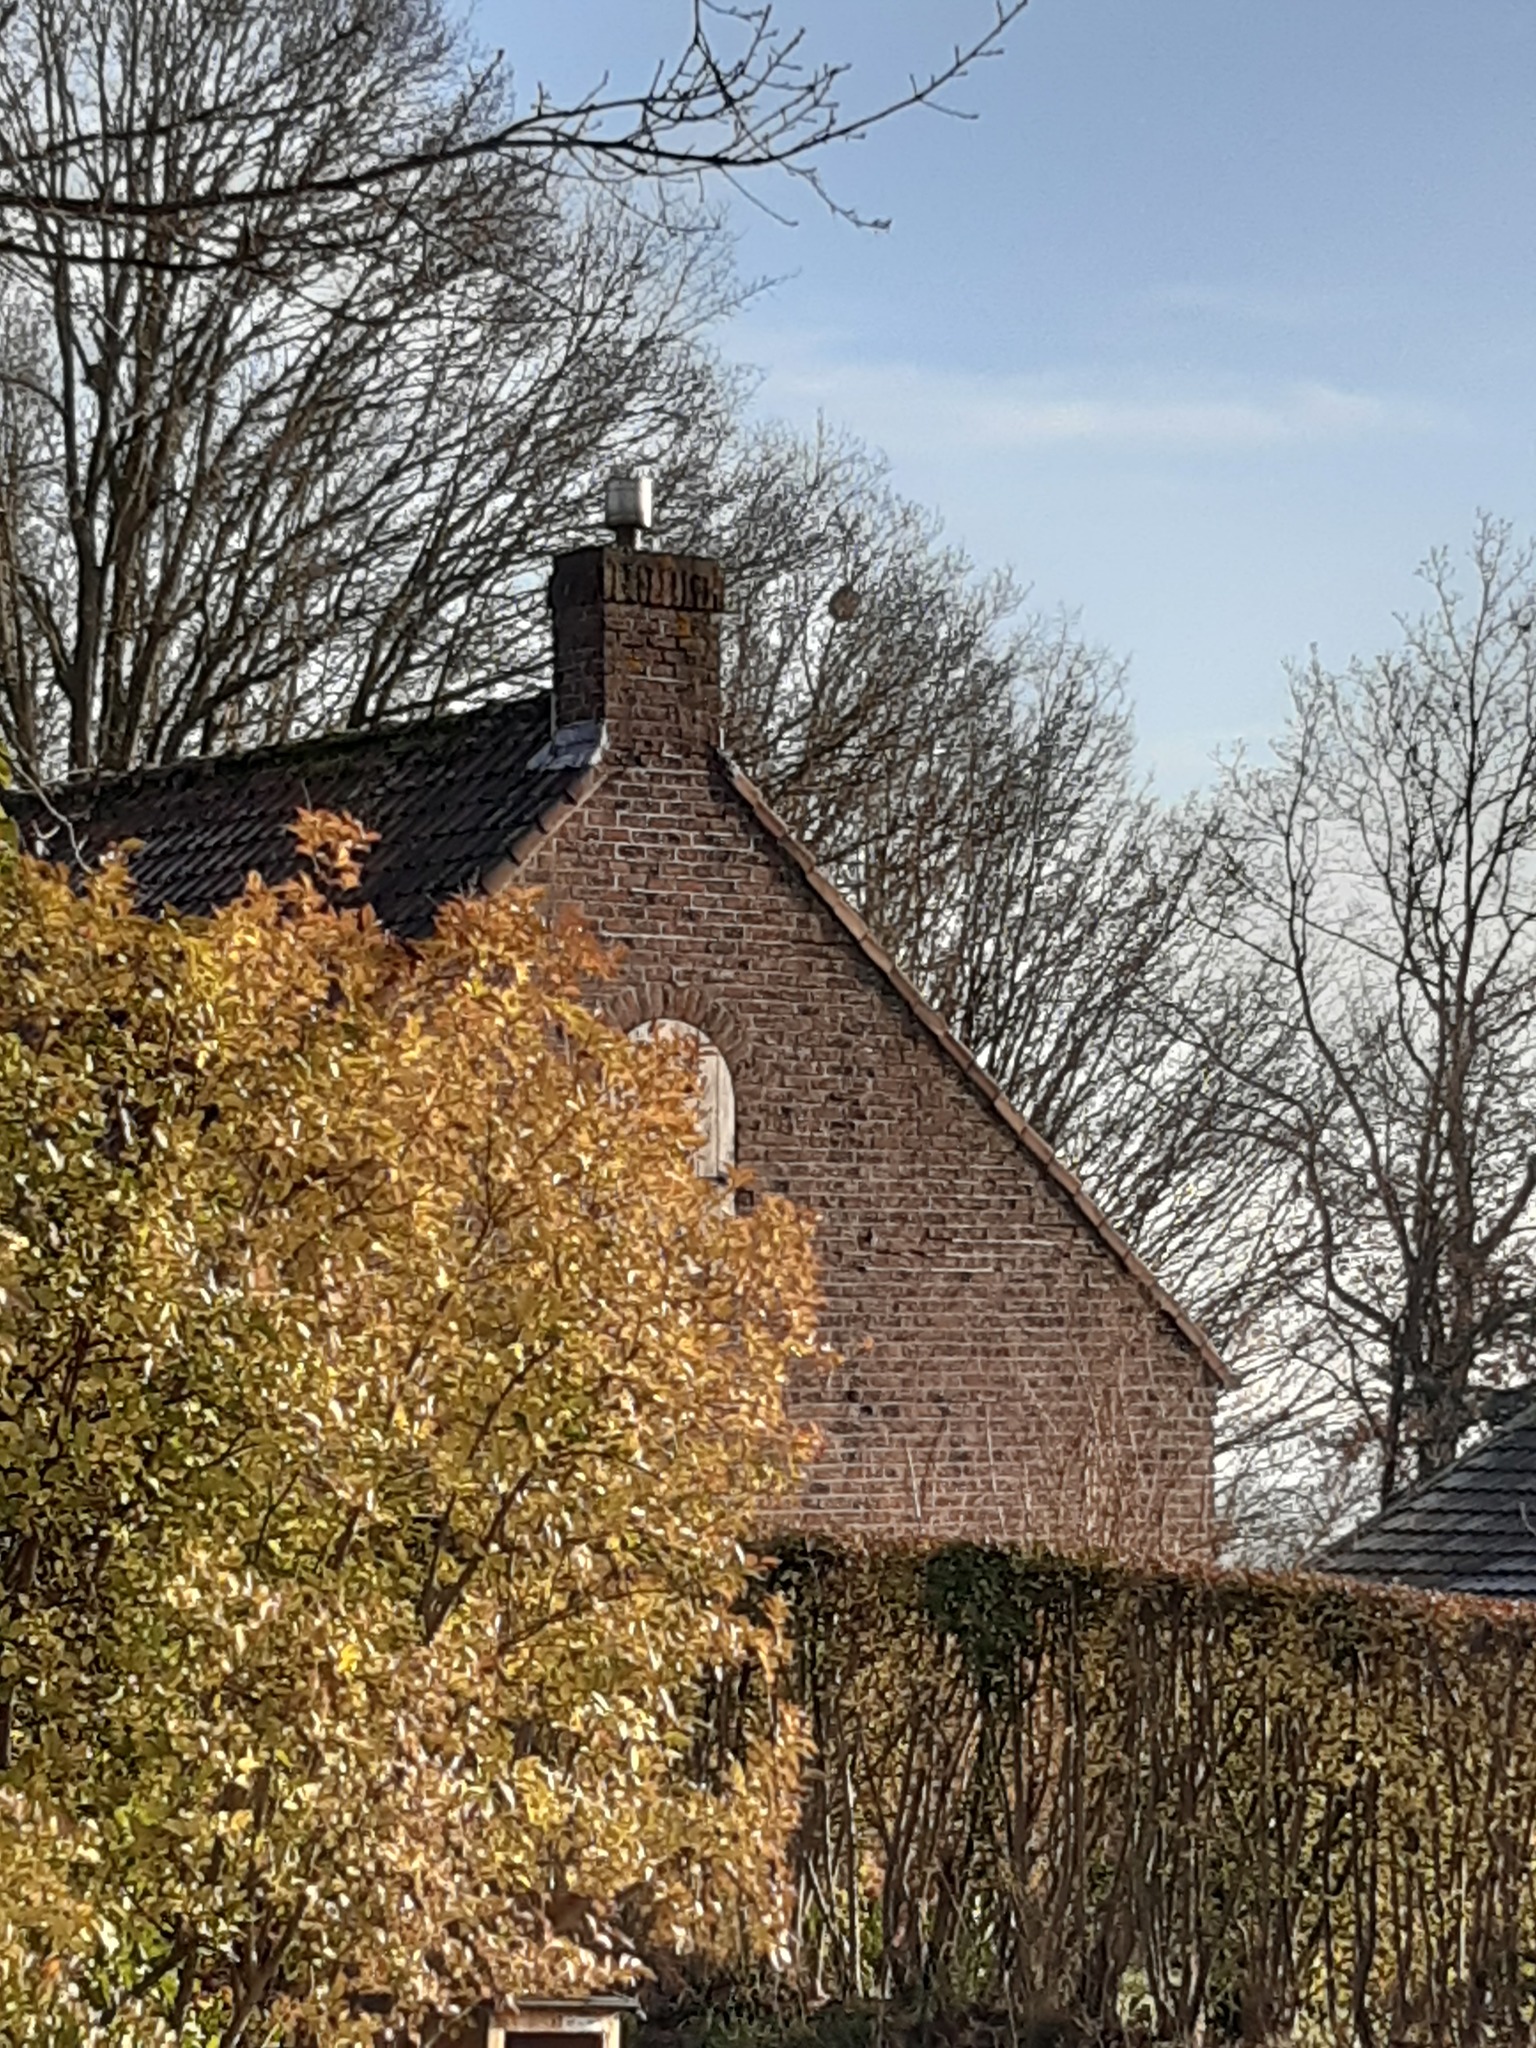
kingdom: Animalia
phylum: Arthropoda
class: Insecta
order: Hymenoptera
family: Vespidae
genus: Vespa
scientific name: Vespa velutina
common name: Asian hornet
